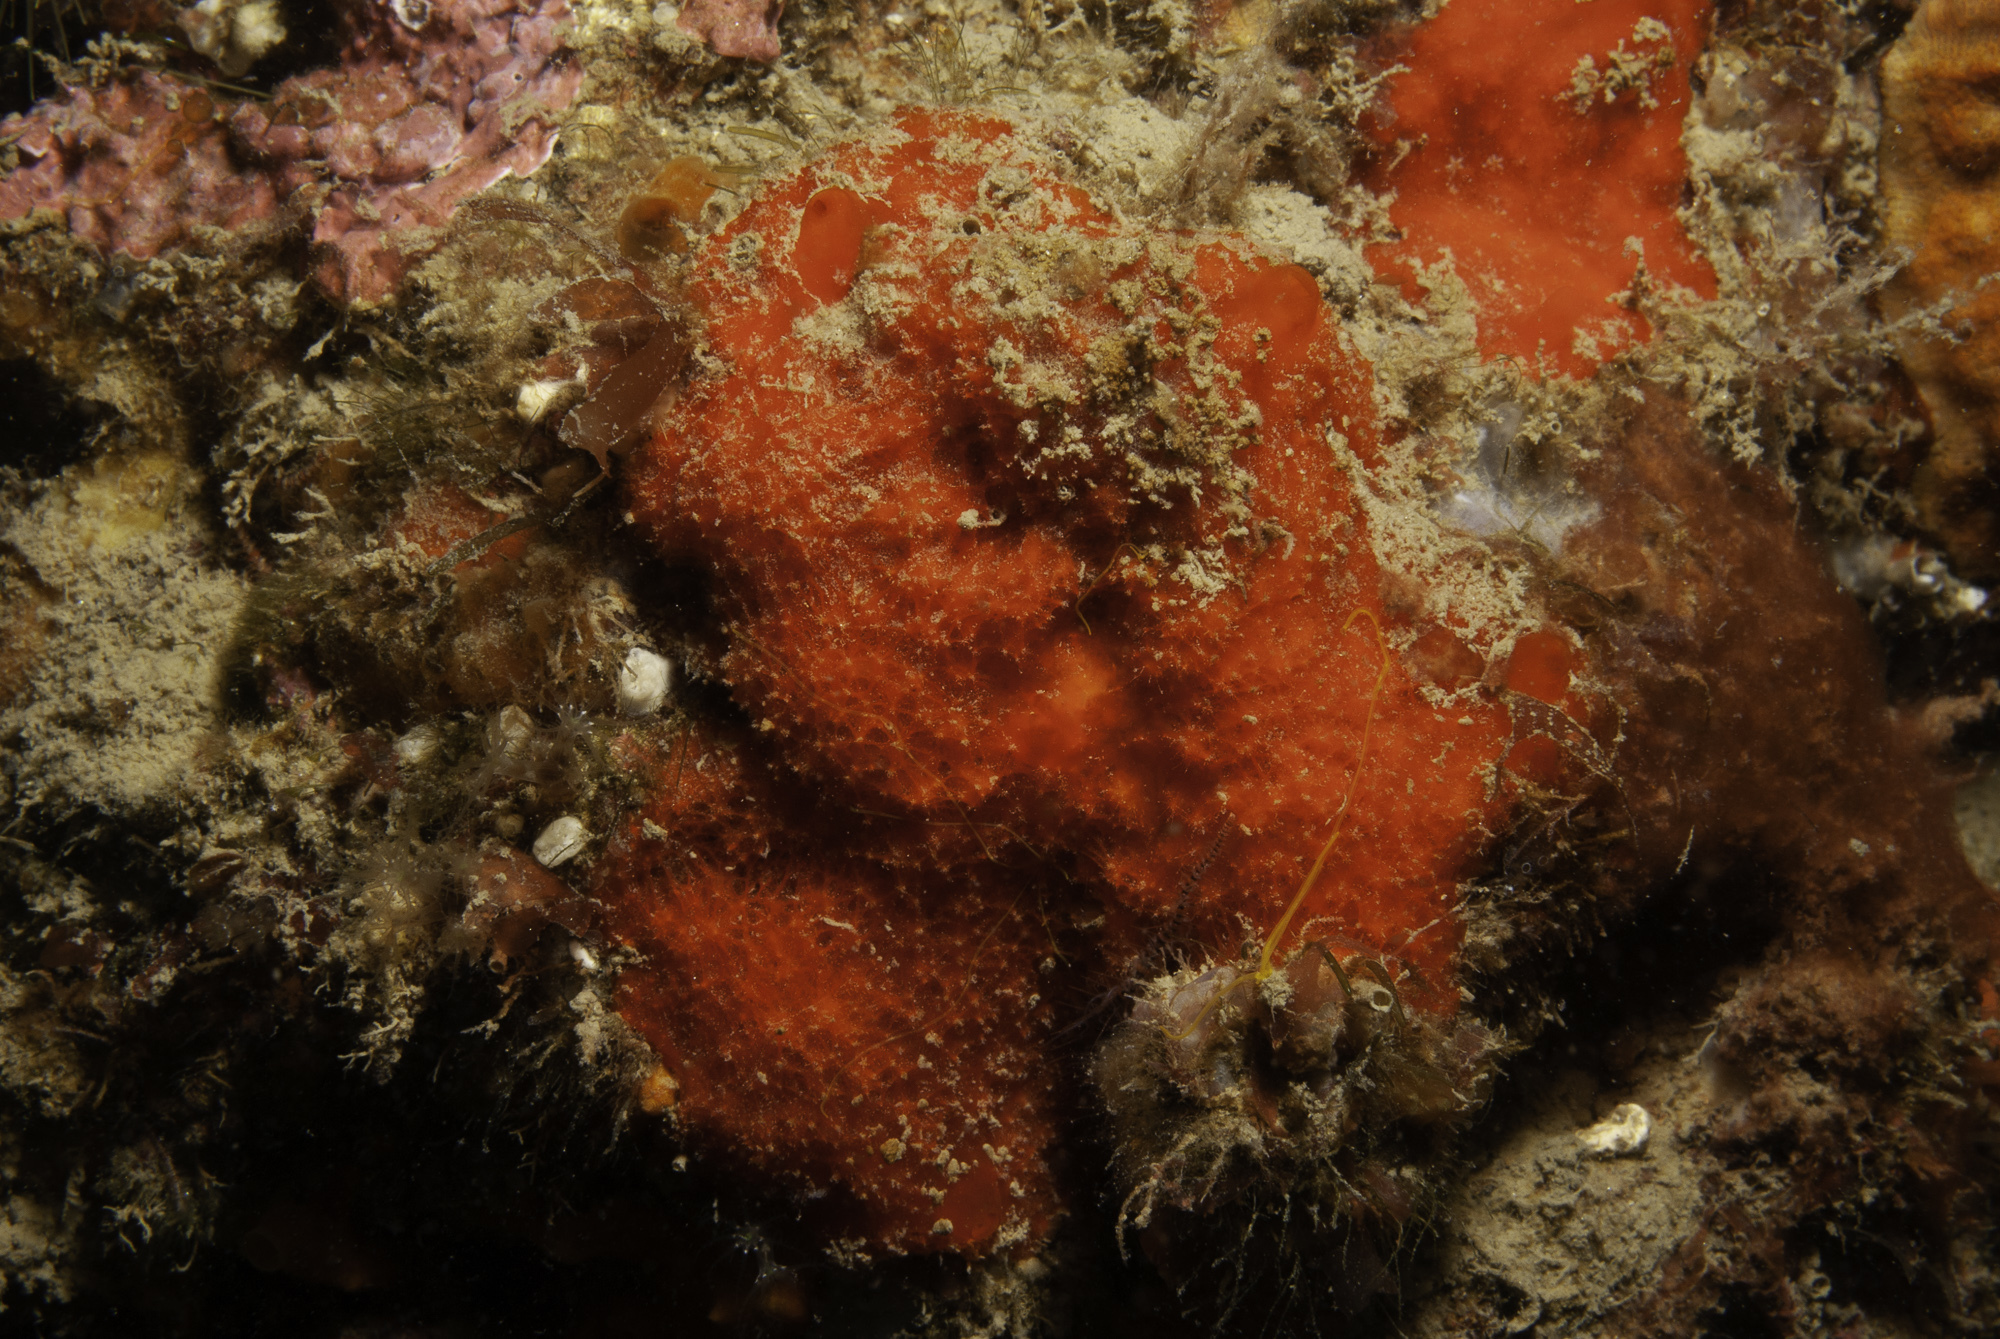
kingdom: Animalia
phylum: Porifera
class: Demospongiae
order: Axinellida
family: Raspailiidae
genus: Raspaciona
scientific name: Raspaciona aculeata
